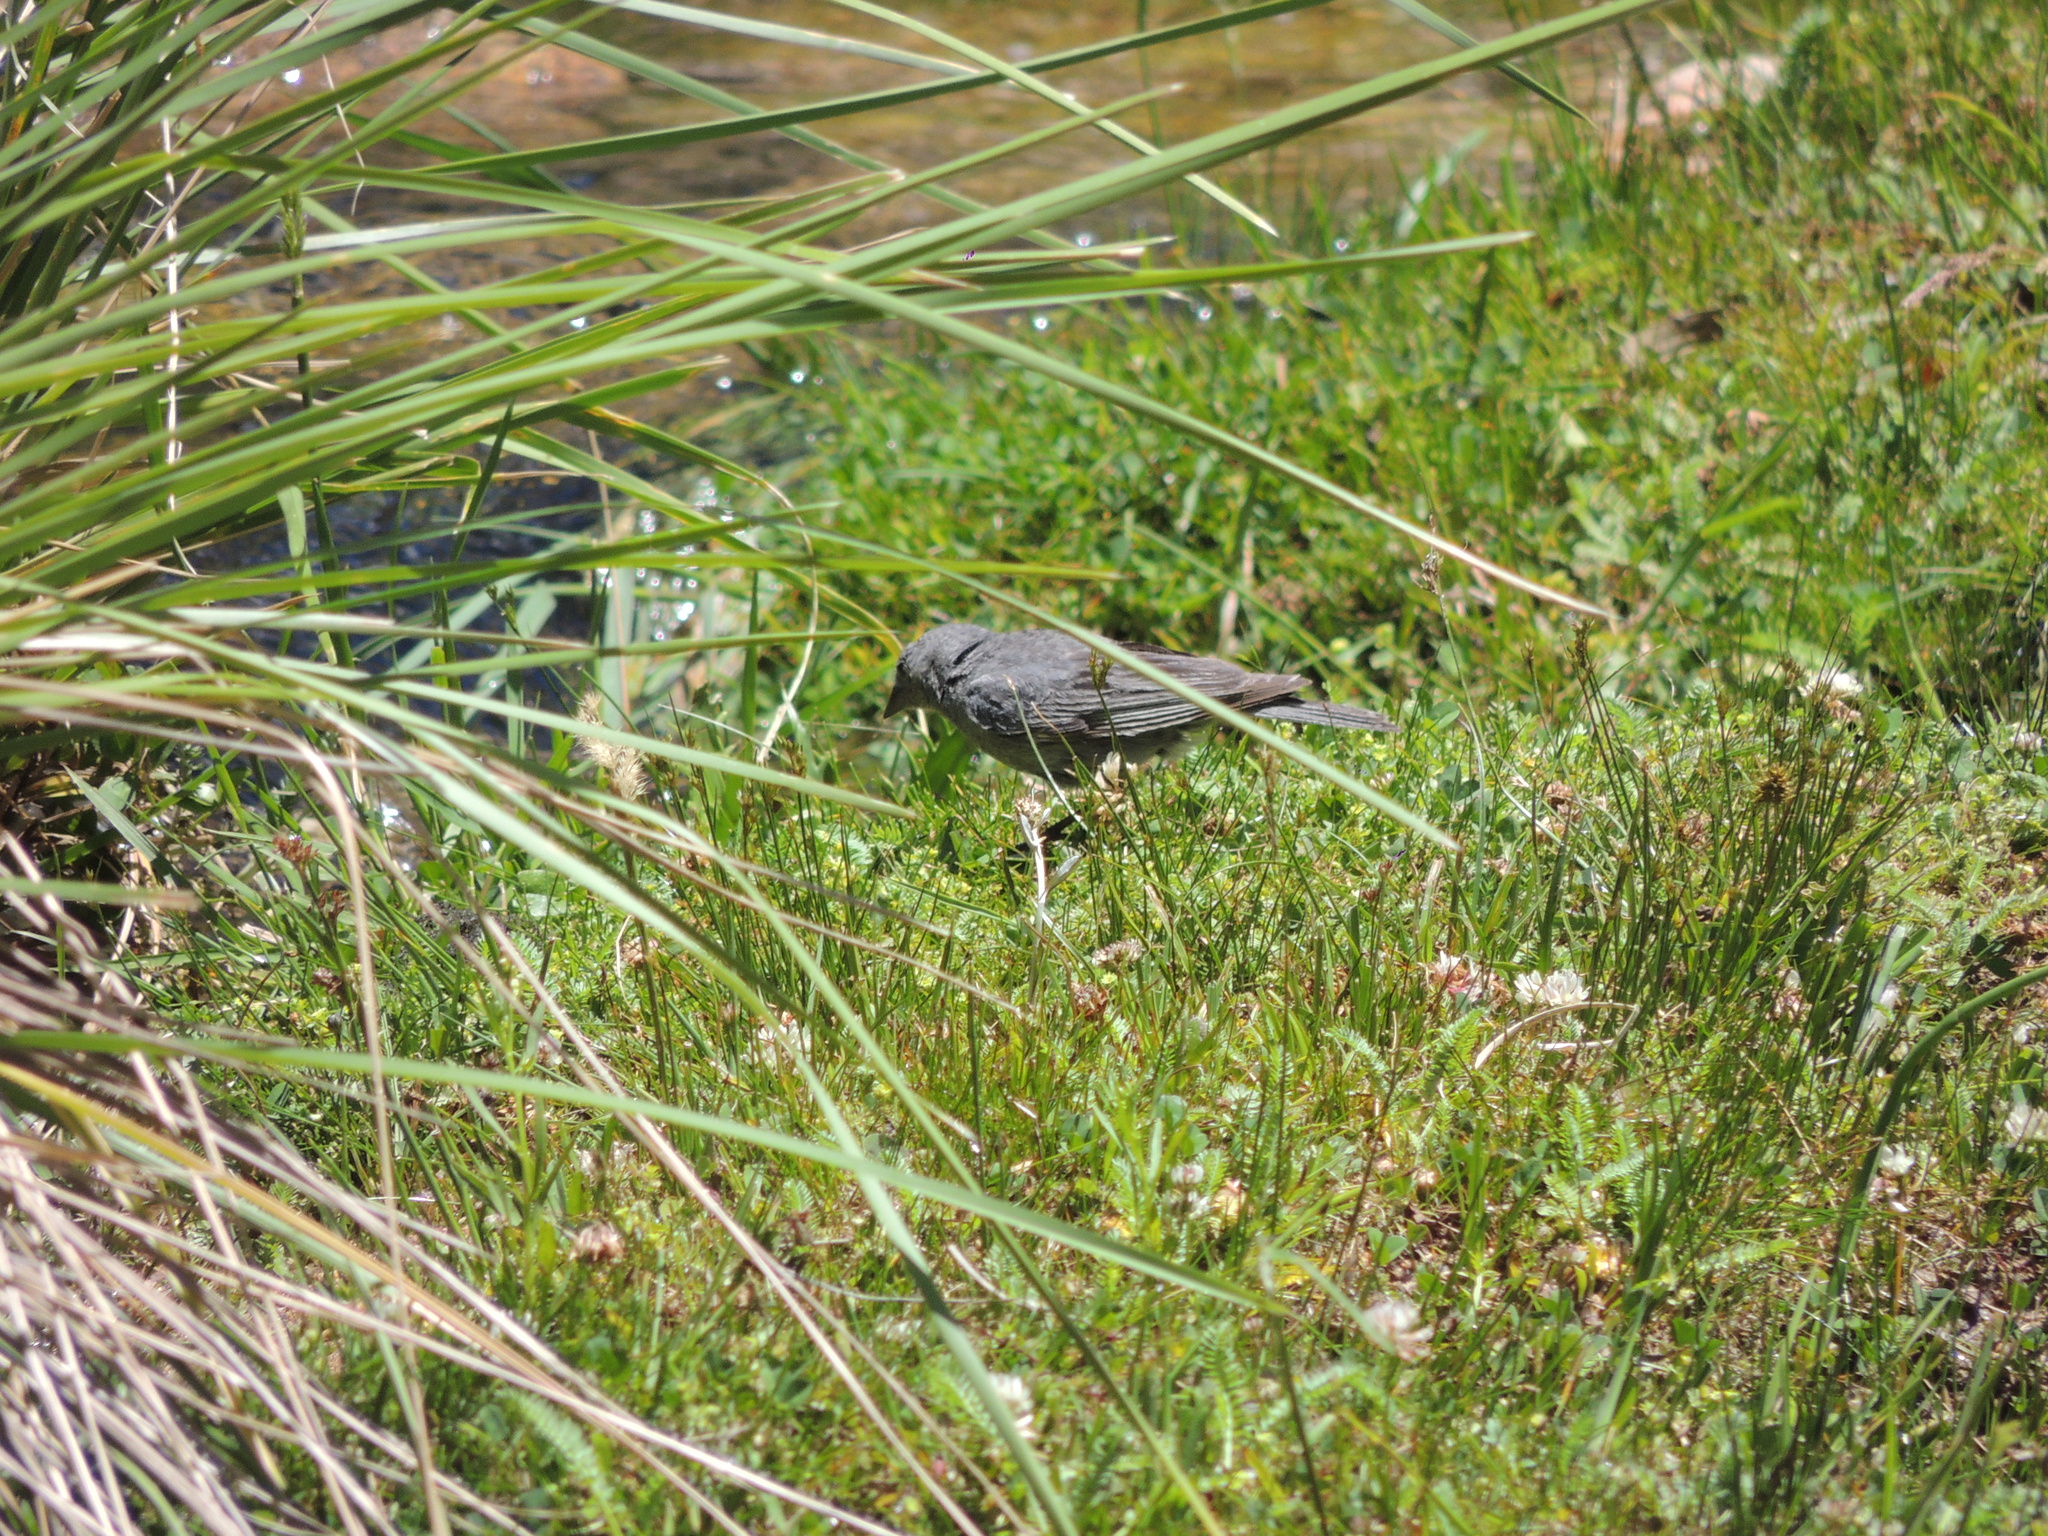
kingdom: Animalia
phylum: Chordata
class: Aves
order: Passeriformes
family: Thraupidae
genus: Geospizopsis
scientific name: Geospizopsis unicolor
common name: Plumbeous sierra-finch
